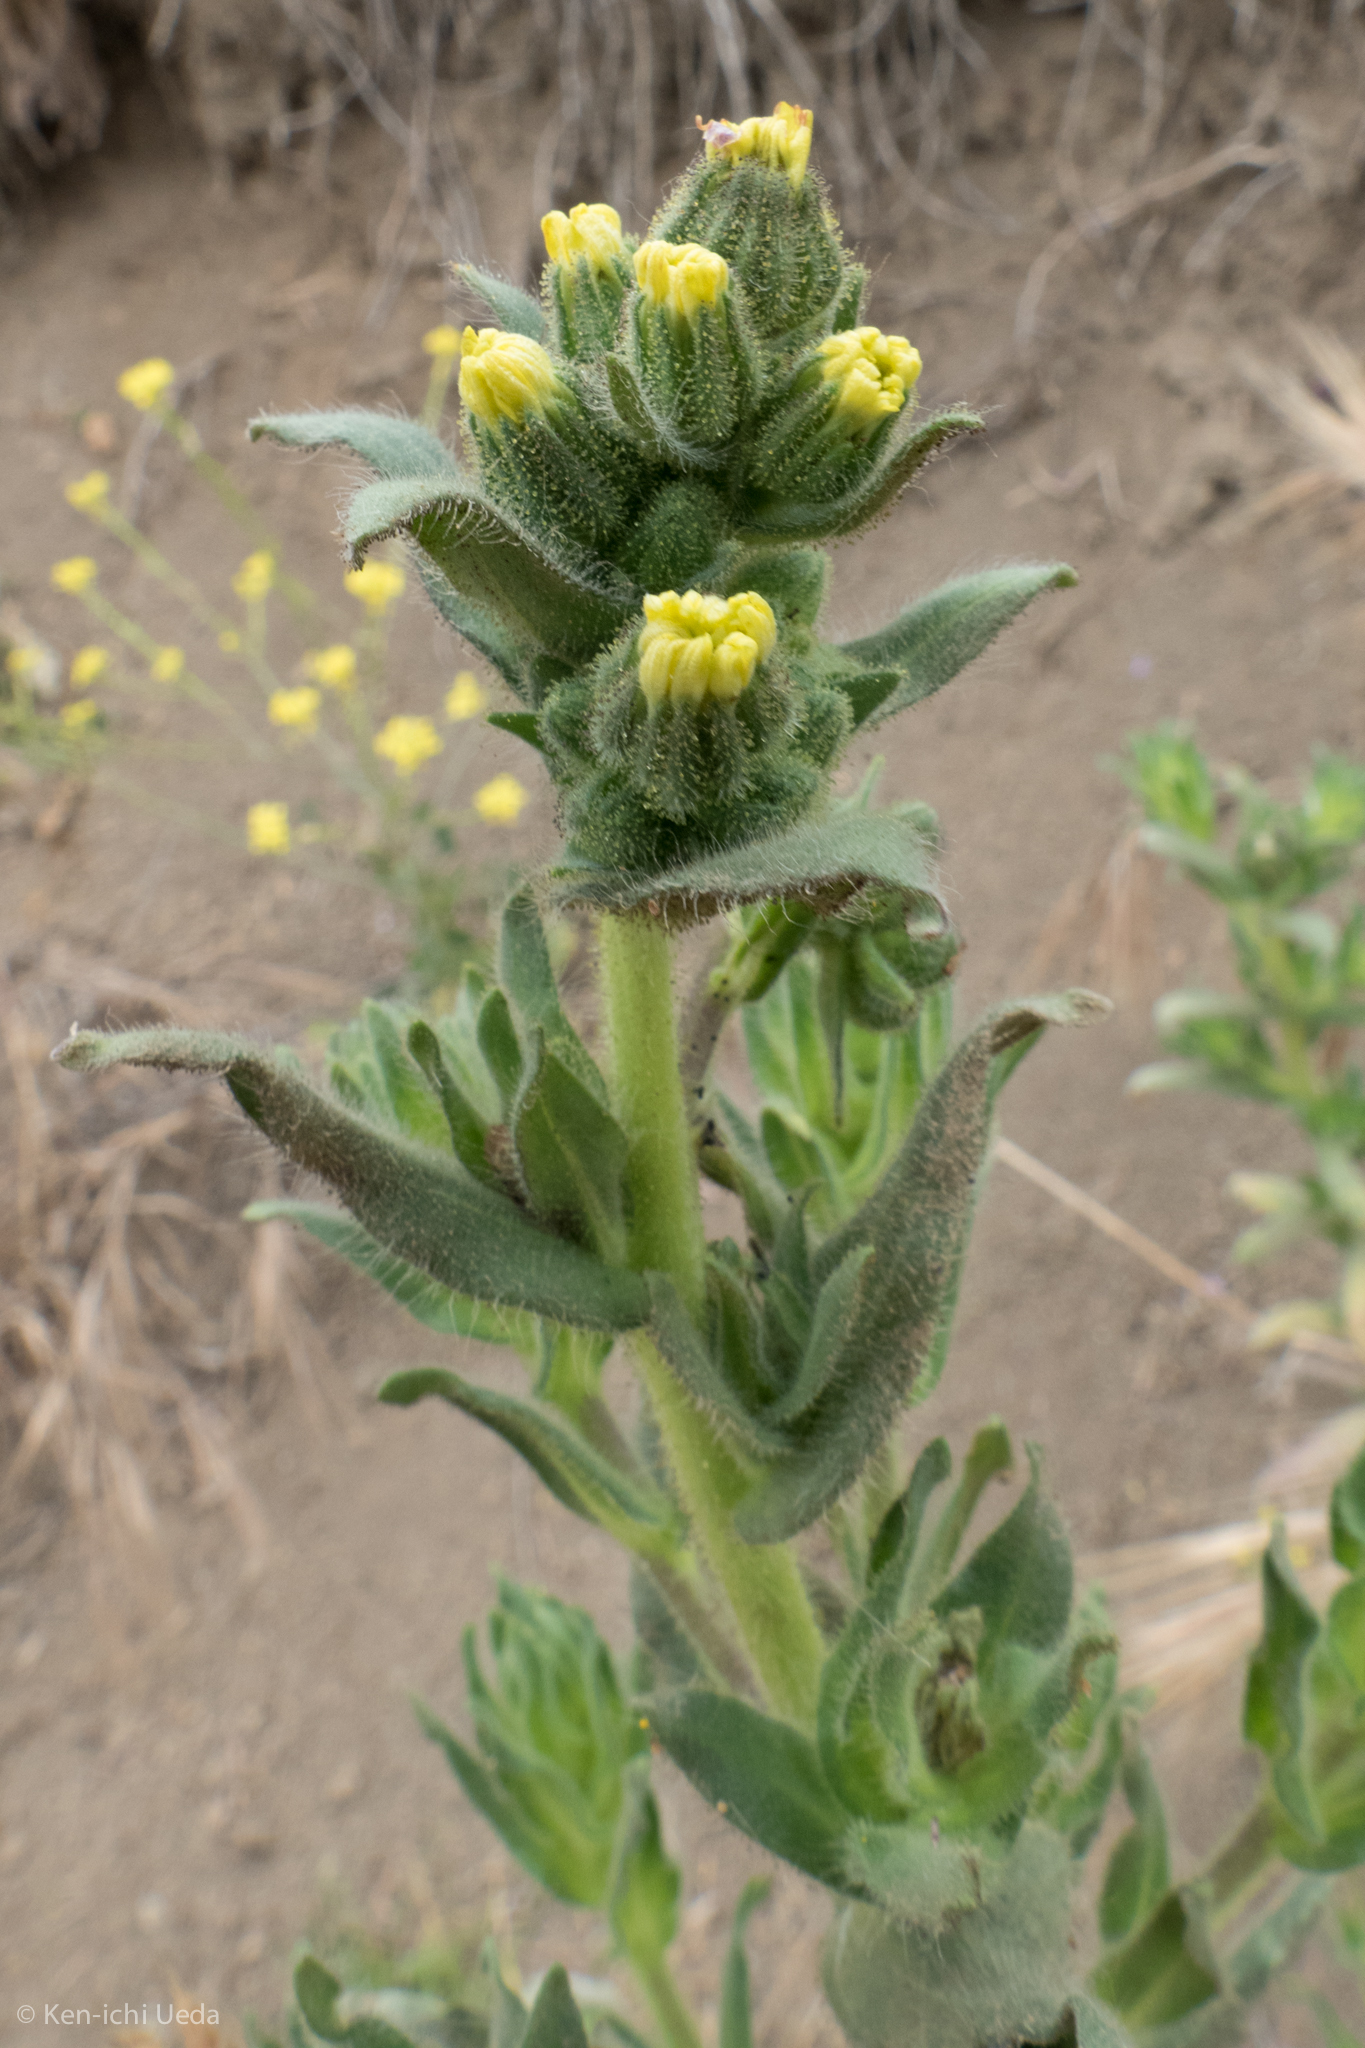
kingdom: Plantae
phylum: Tracheophyta
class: Magnoliopsida
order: Asterales
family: Asteraceae
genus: Madia
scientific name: Madia sativa
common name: Coast tarweed
